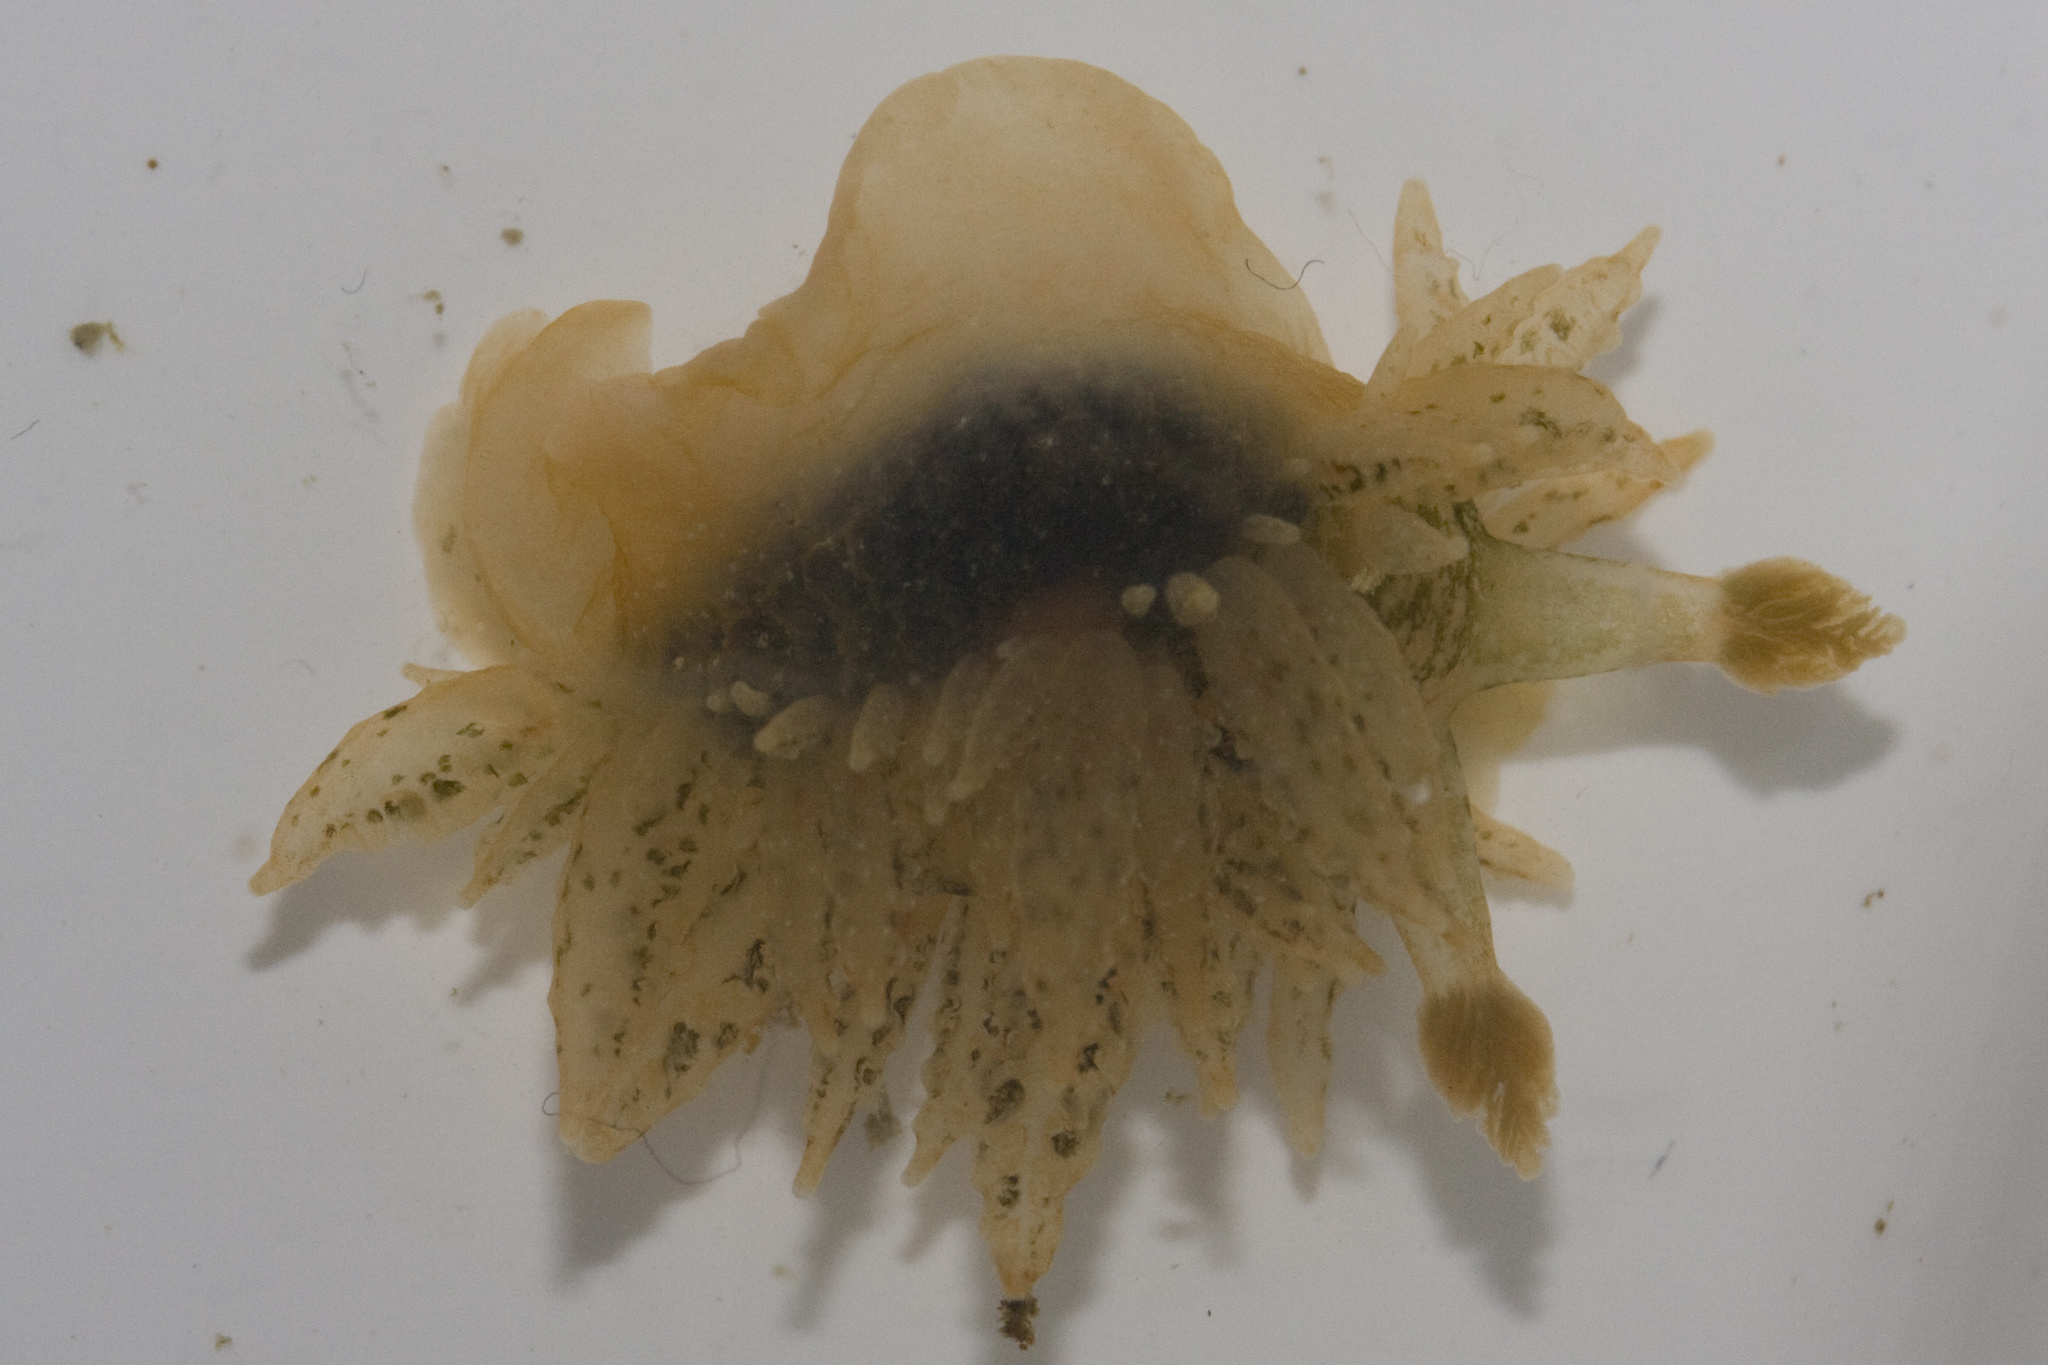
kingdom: Animalia
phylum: Mollusca
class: Gastropoda
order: Nudibranchia
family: Dironidae
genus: Dirona
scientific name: Dirona picta
